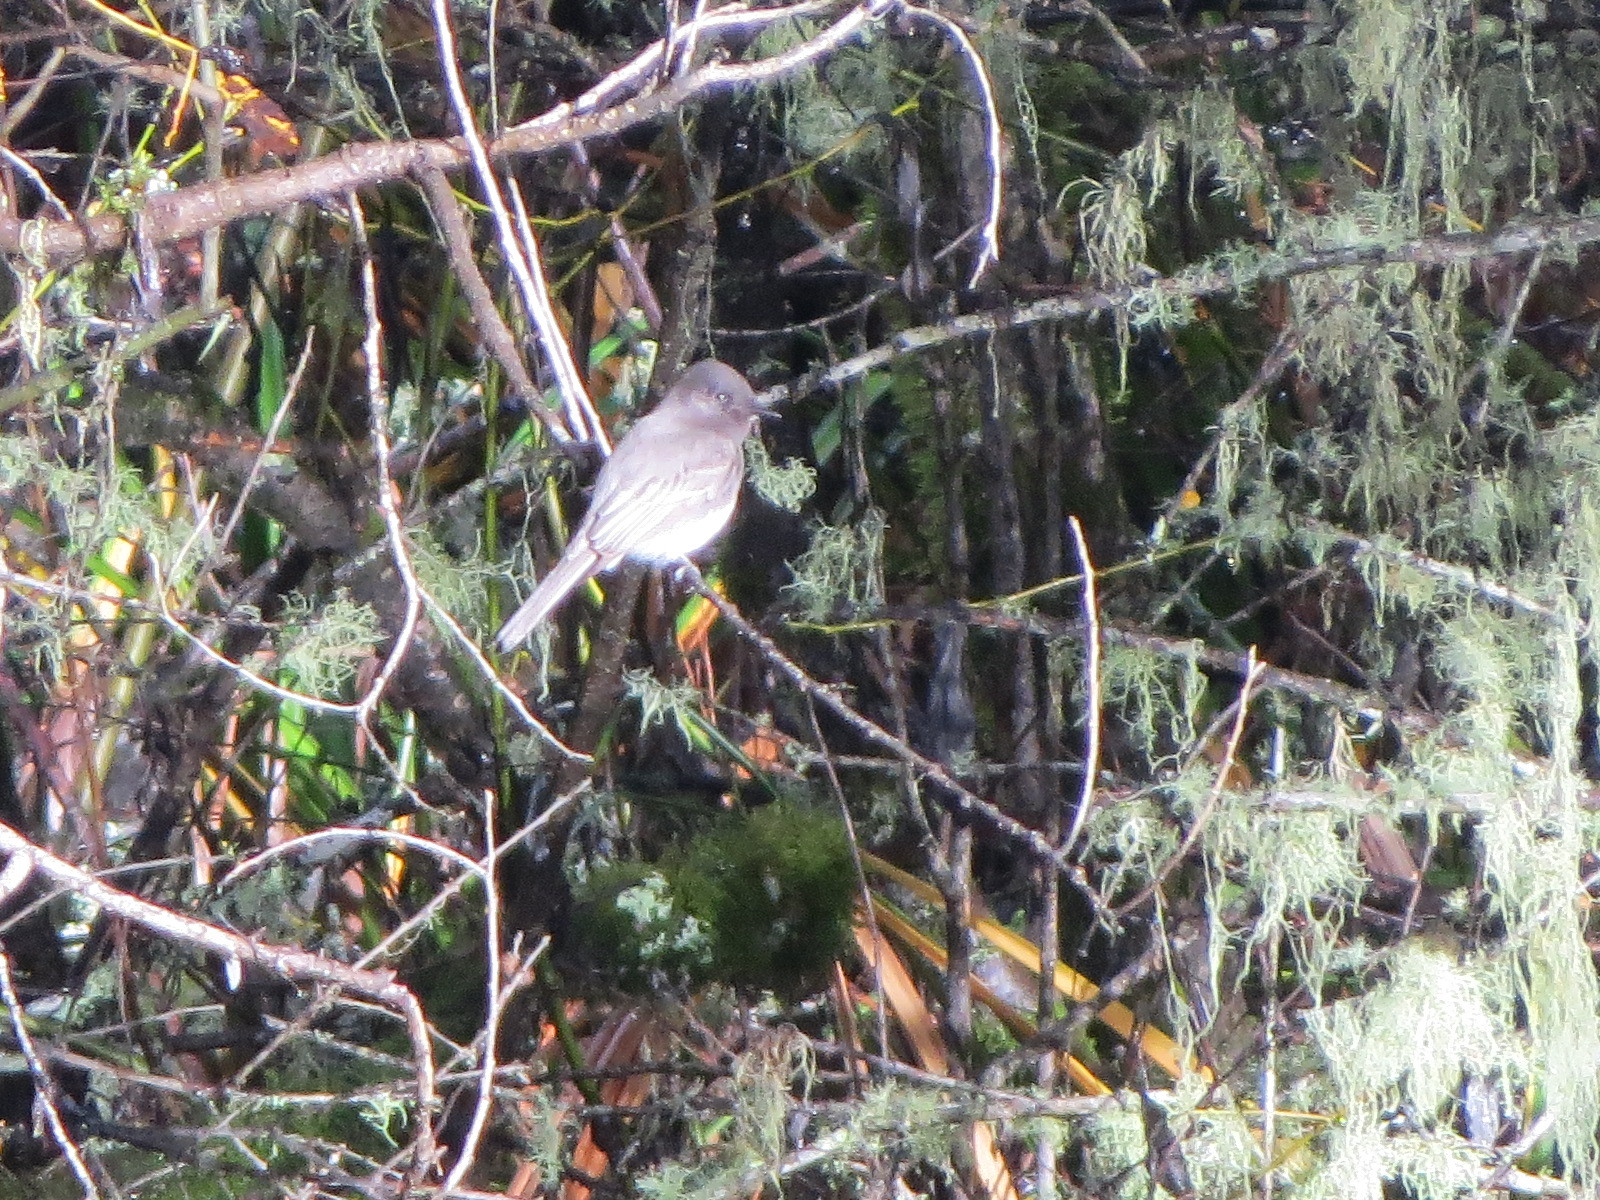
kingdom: Animalia
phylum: Chordata
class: Aves
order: Passeriformes
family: Tyrannidae
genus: Sayornis
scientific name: Sayornis nigricans
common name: Black phoebe
